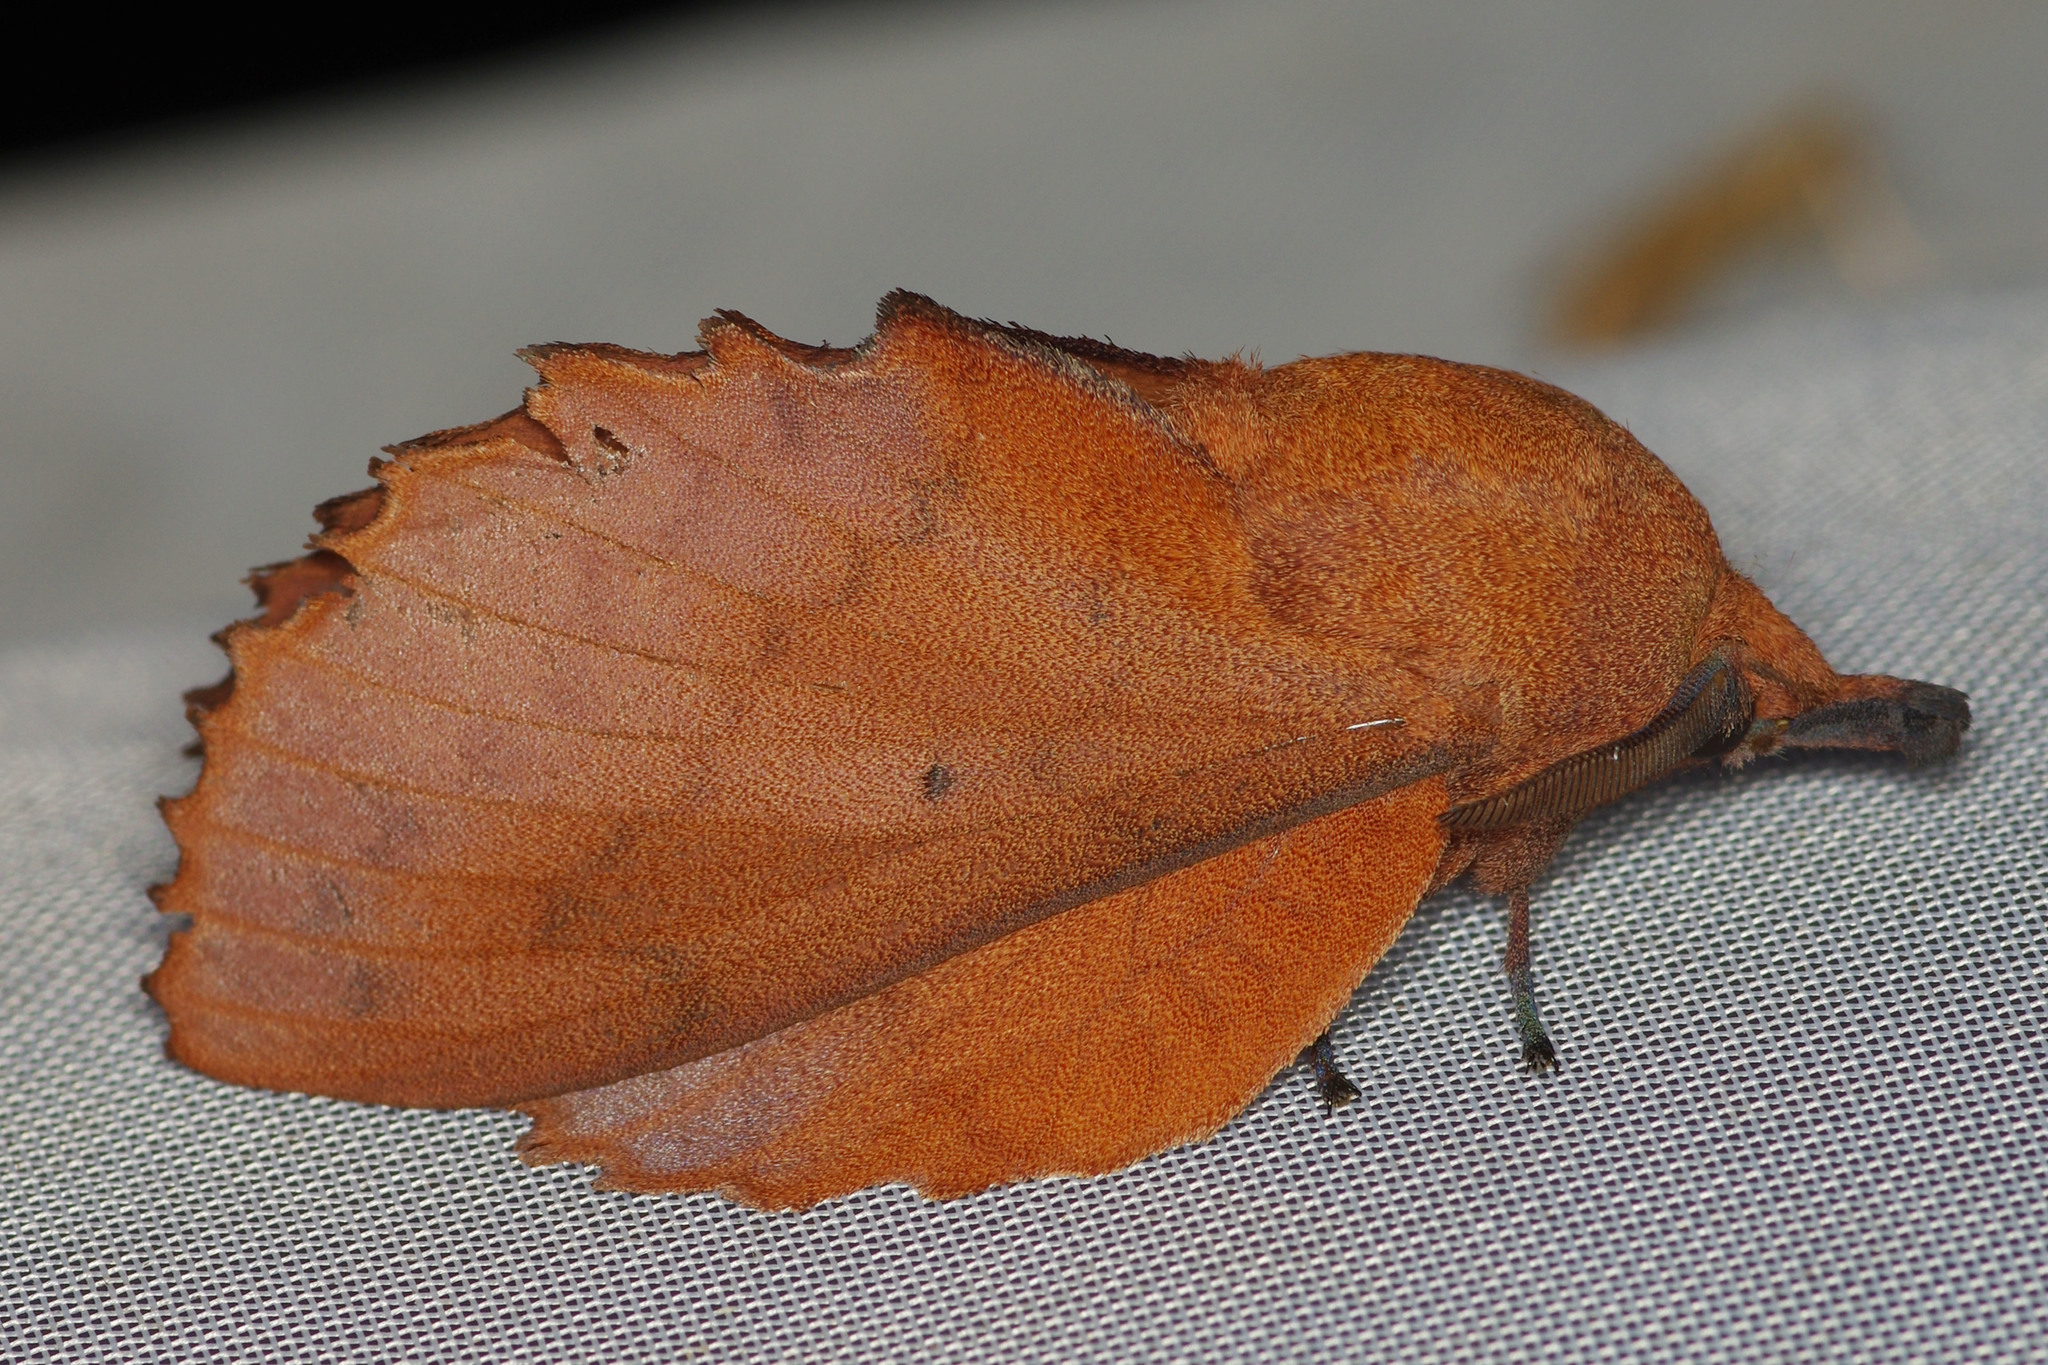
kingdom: Animalia
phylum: Arthropoda
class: Insecta
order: Lepidoptera
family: Lasiocampidae
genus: Gastropacha
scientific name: Gastropacha quercifolia
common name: Lappet
